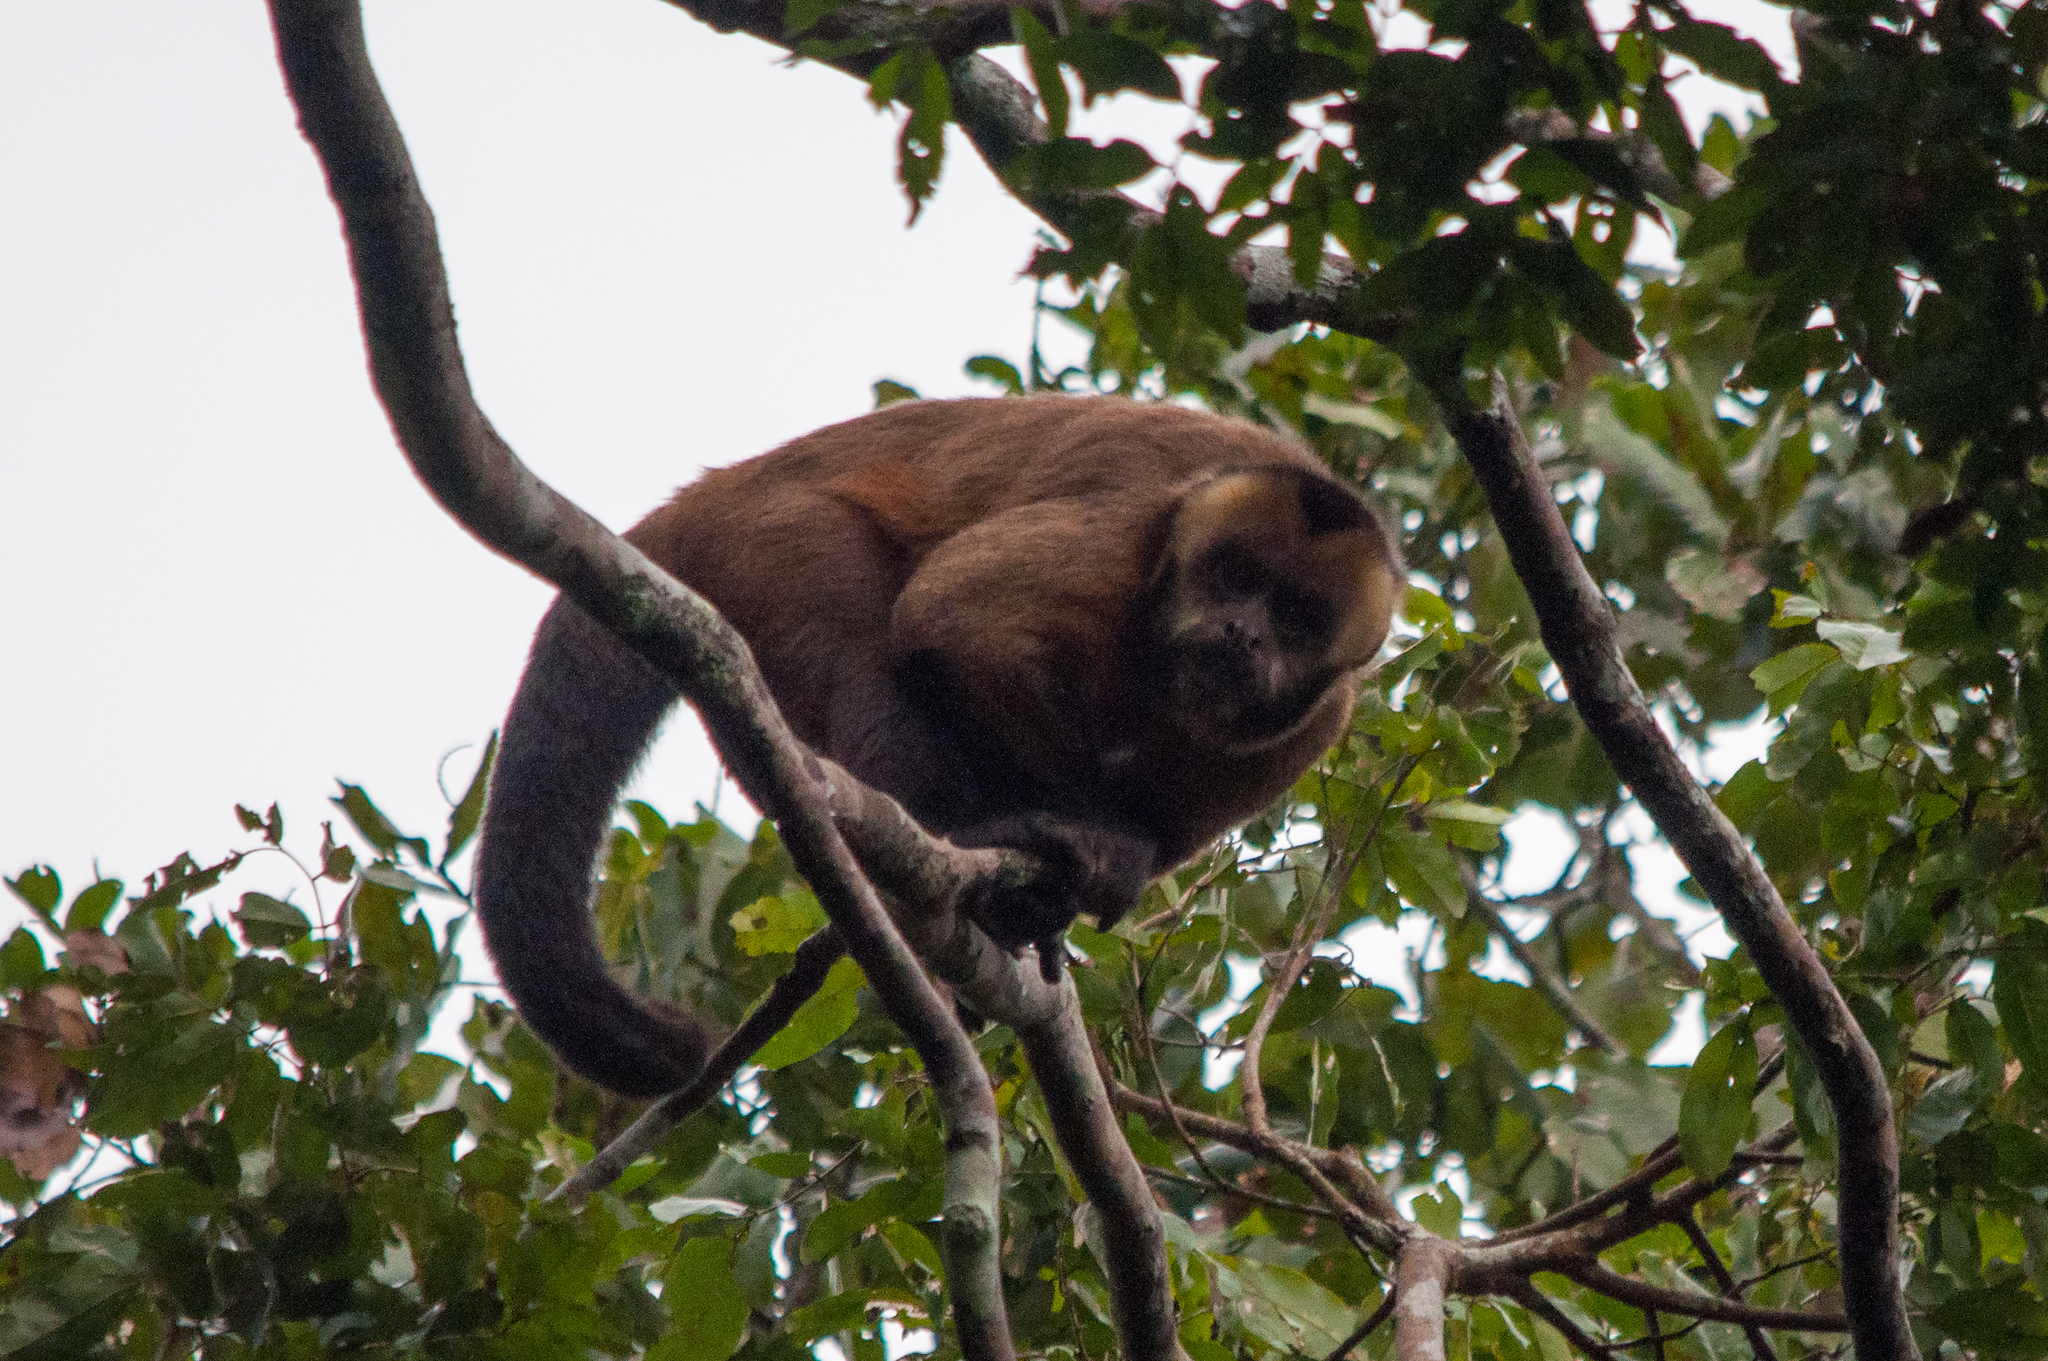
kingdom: Animalia
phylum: Chordata
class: Mammalia
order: Primates
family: Cebidae
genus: Sapajus
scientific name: Sapajus apella
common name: Tufted capuchin
